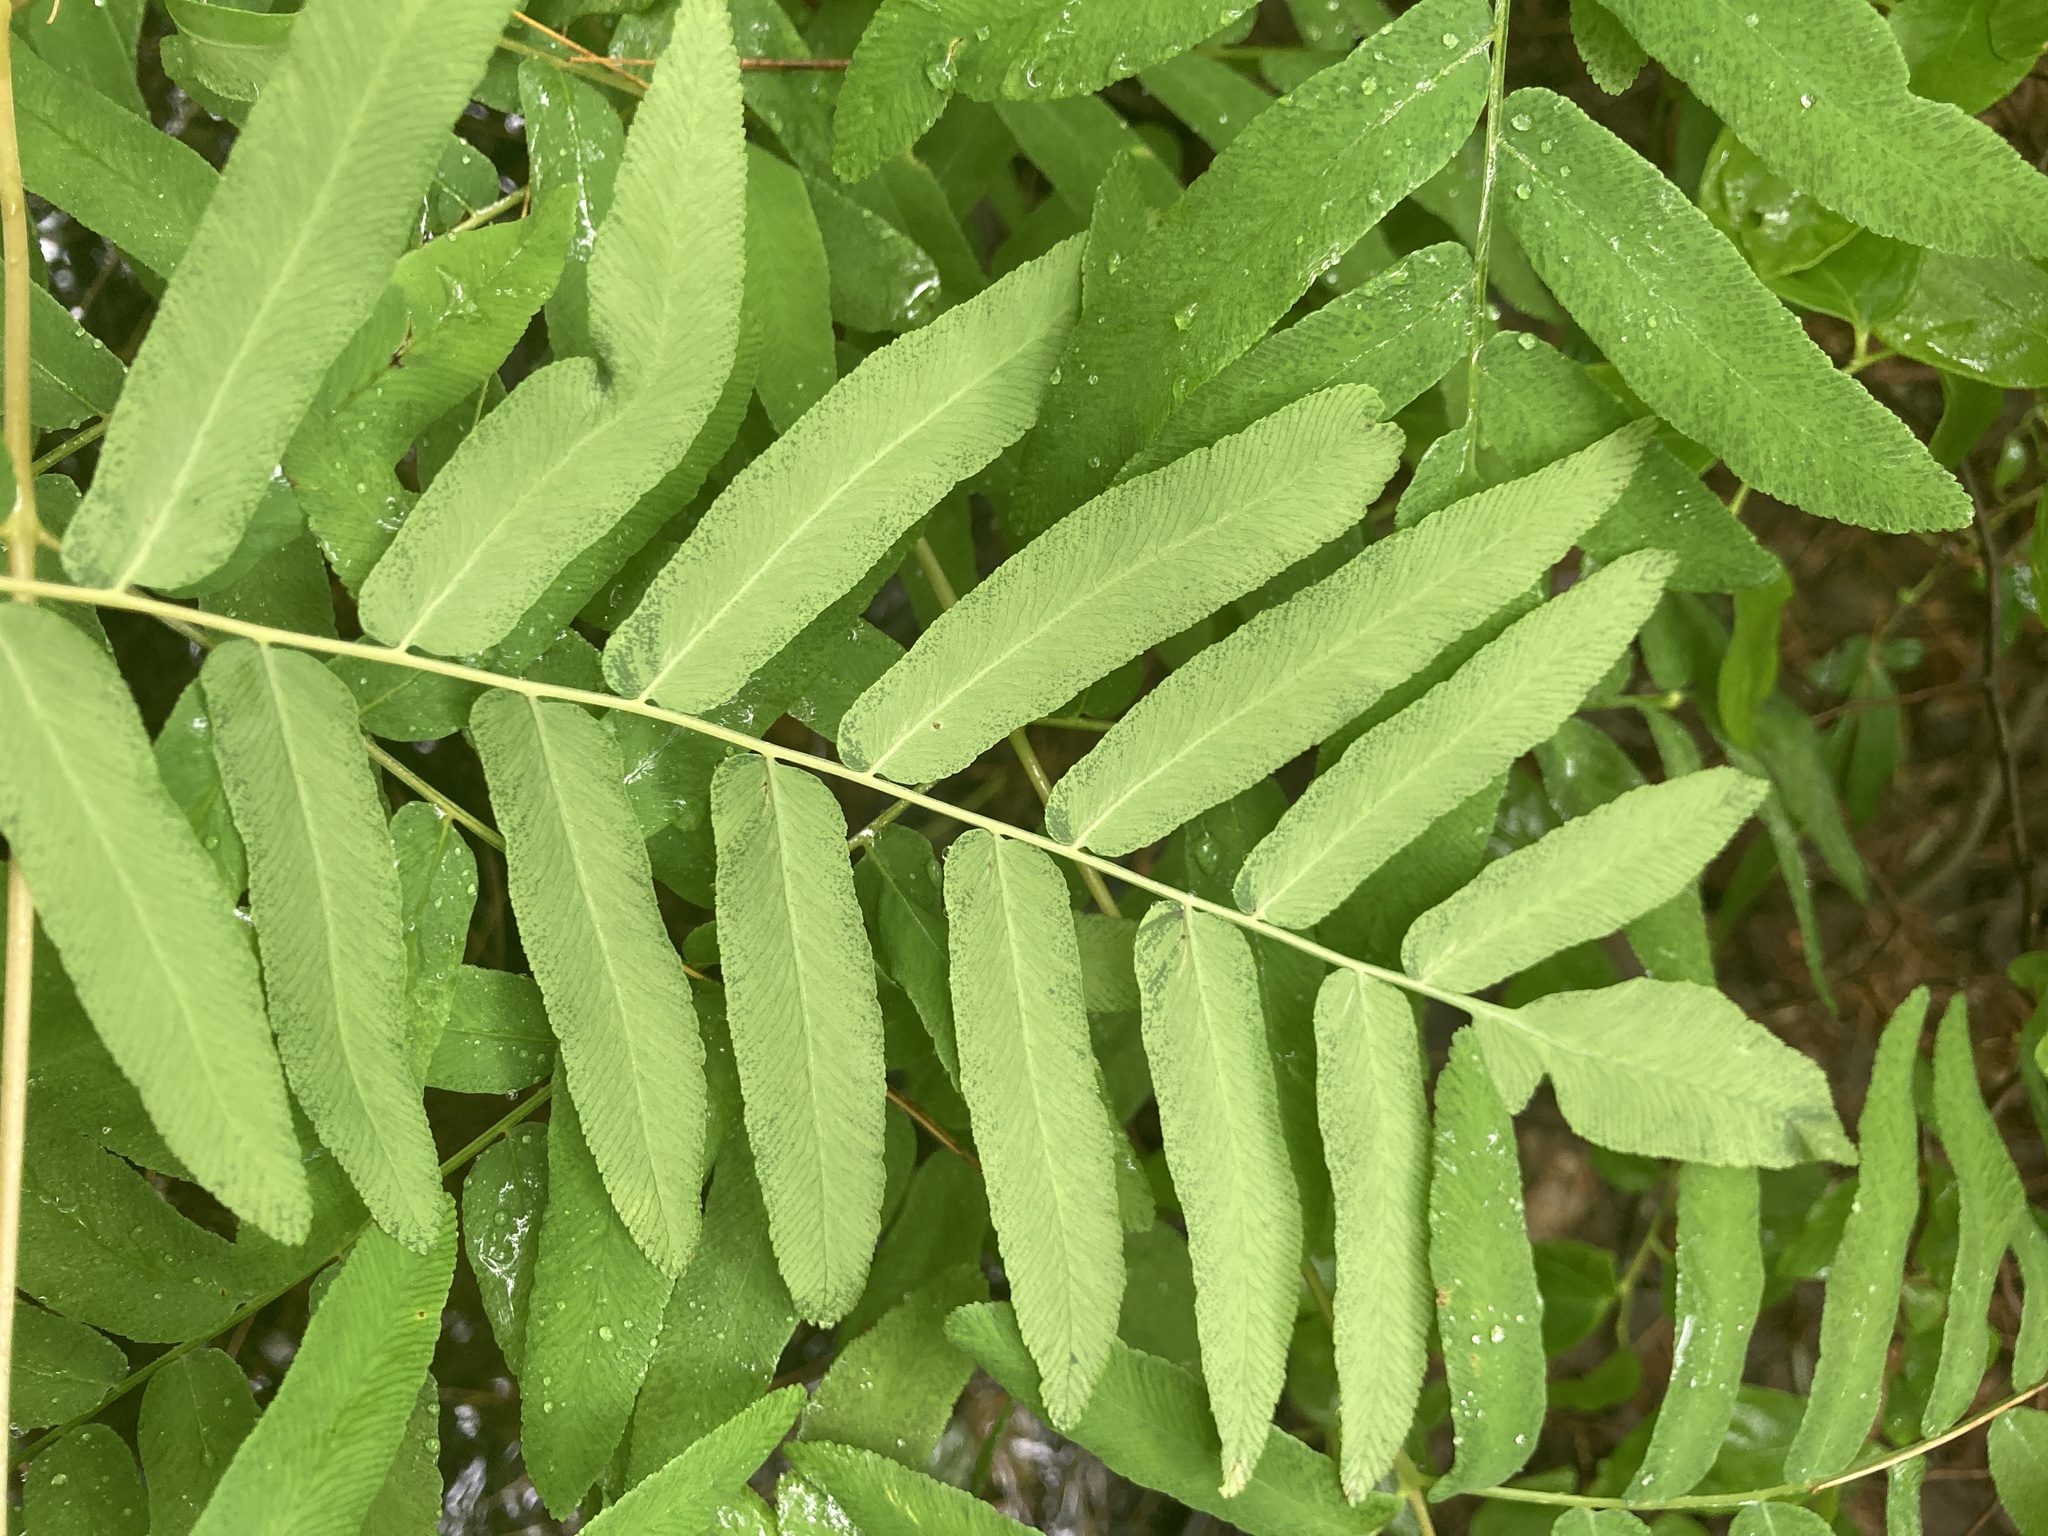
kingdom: Plantae
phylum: Tracheophyta
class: Polypodiopsida
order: Osmundales
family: Osmundaceae
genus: Osmunda
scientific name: Osmunda spectabilis
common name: American royal fern
